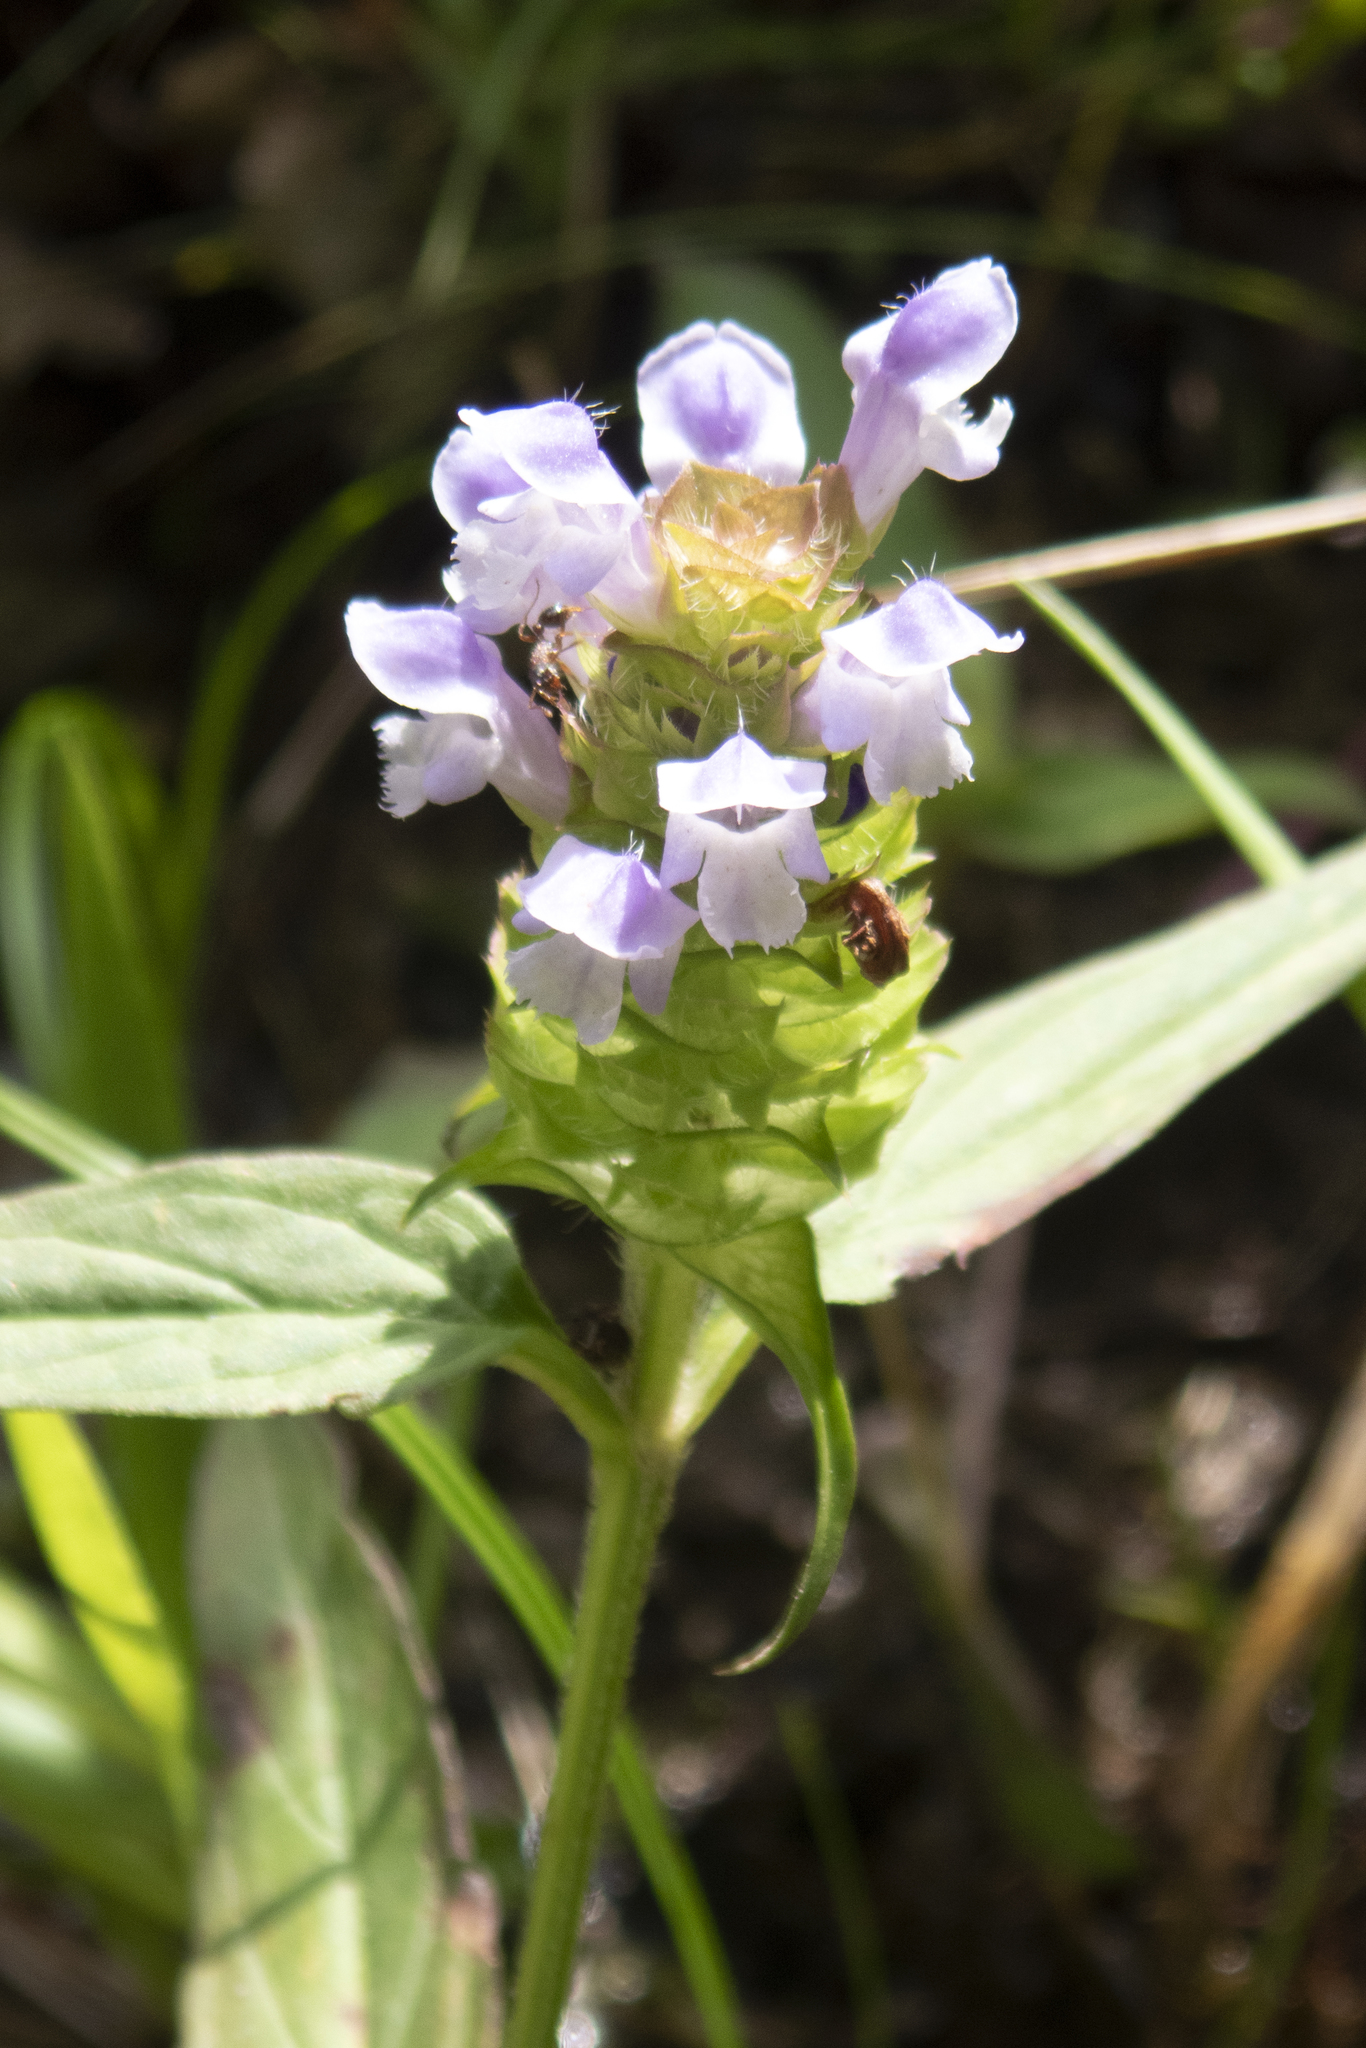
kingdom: Plantae
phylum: Tracheophyta
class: Magnoliopsida
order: Lamiales
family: Lamiaceae
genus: Prunella
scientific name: Prunella vulgaris
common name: Heal-all
